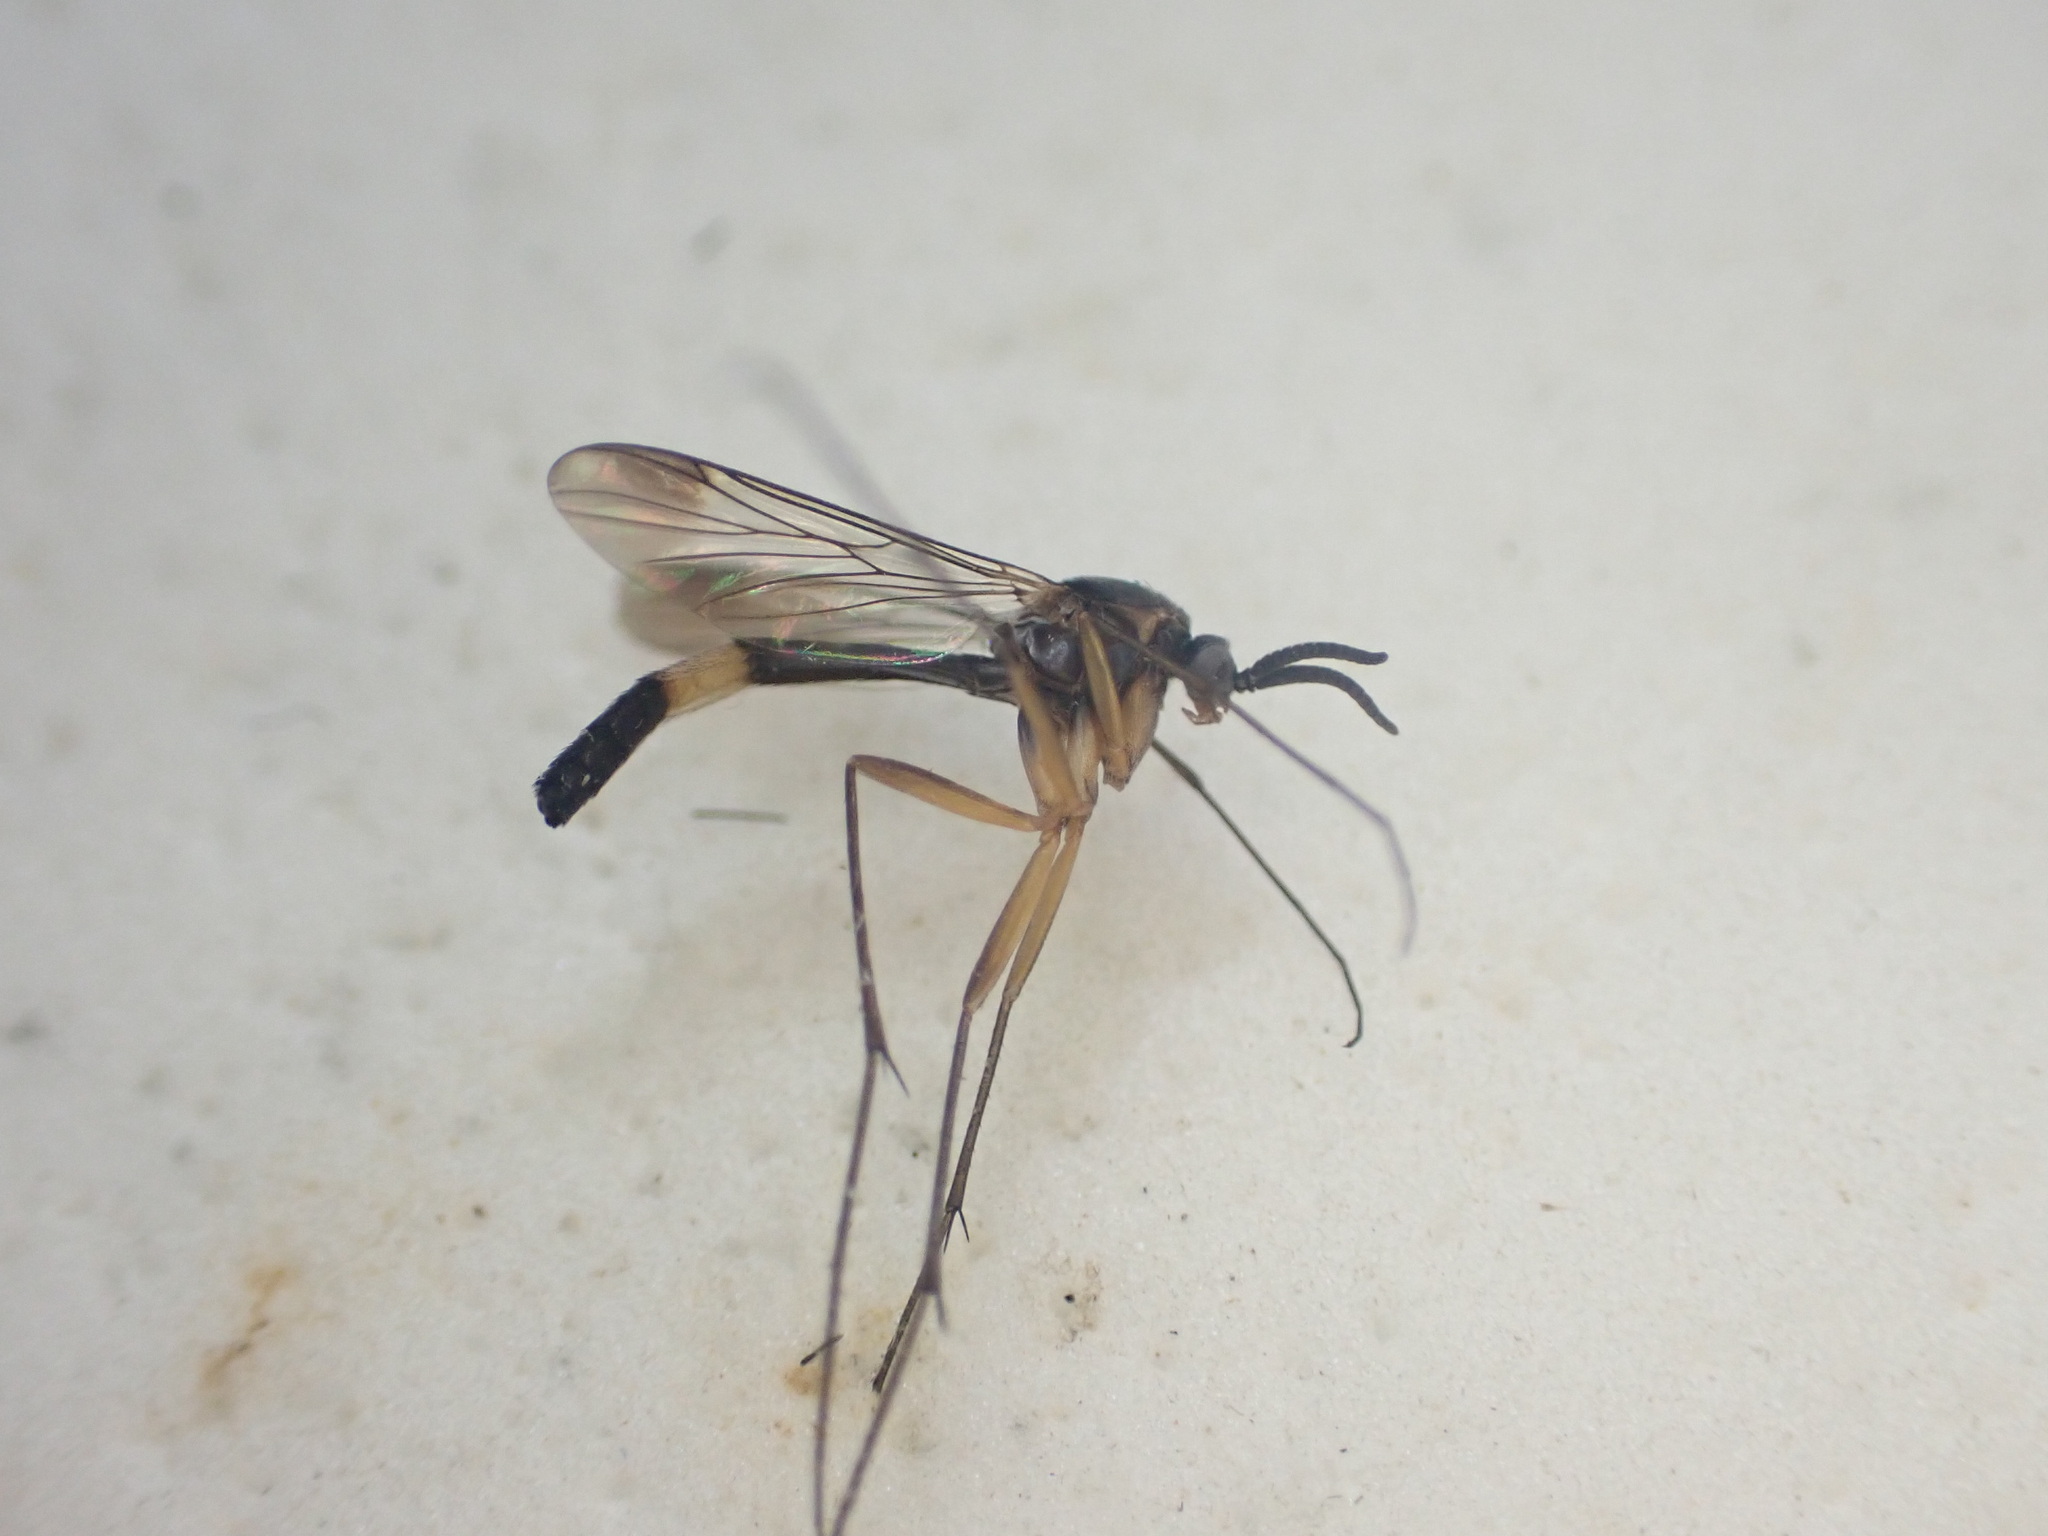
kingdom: Animalia
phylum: Arthropoda
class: Insecta
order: Diptera
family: Keroplatidae
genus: Isoneuromyia
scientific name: Isoneuromyia harrisi
